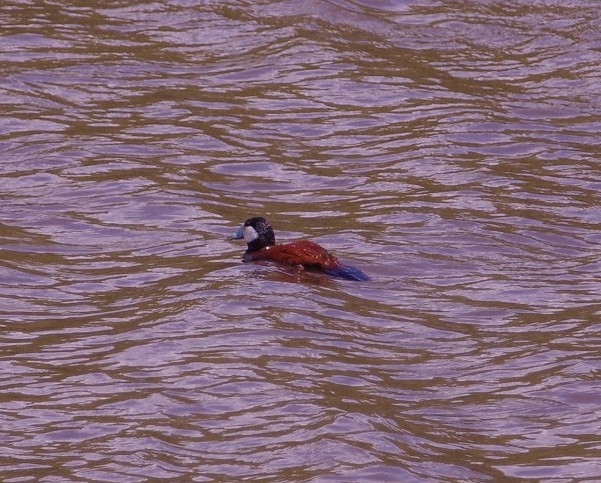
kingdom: Animalia
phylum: Chordata
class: Aves
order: Anseriformes
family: Anatidae
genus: Oxyura
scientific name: Oxyura jamaicensis
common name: Ruddy duck
